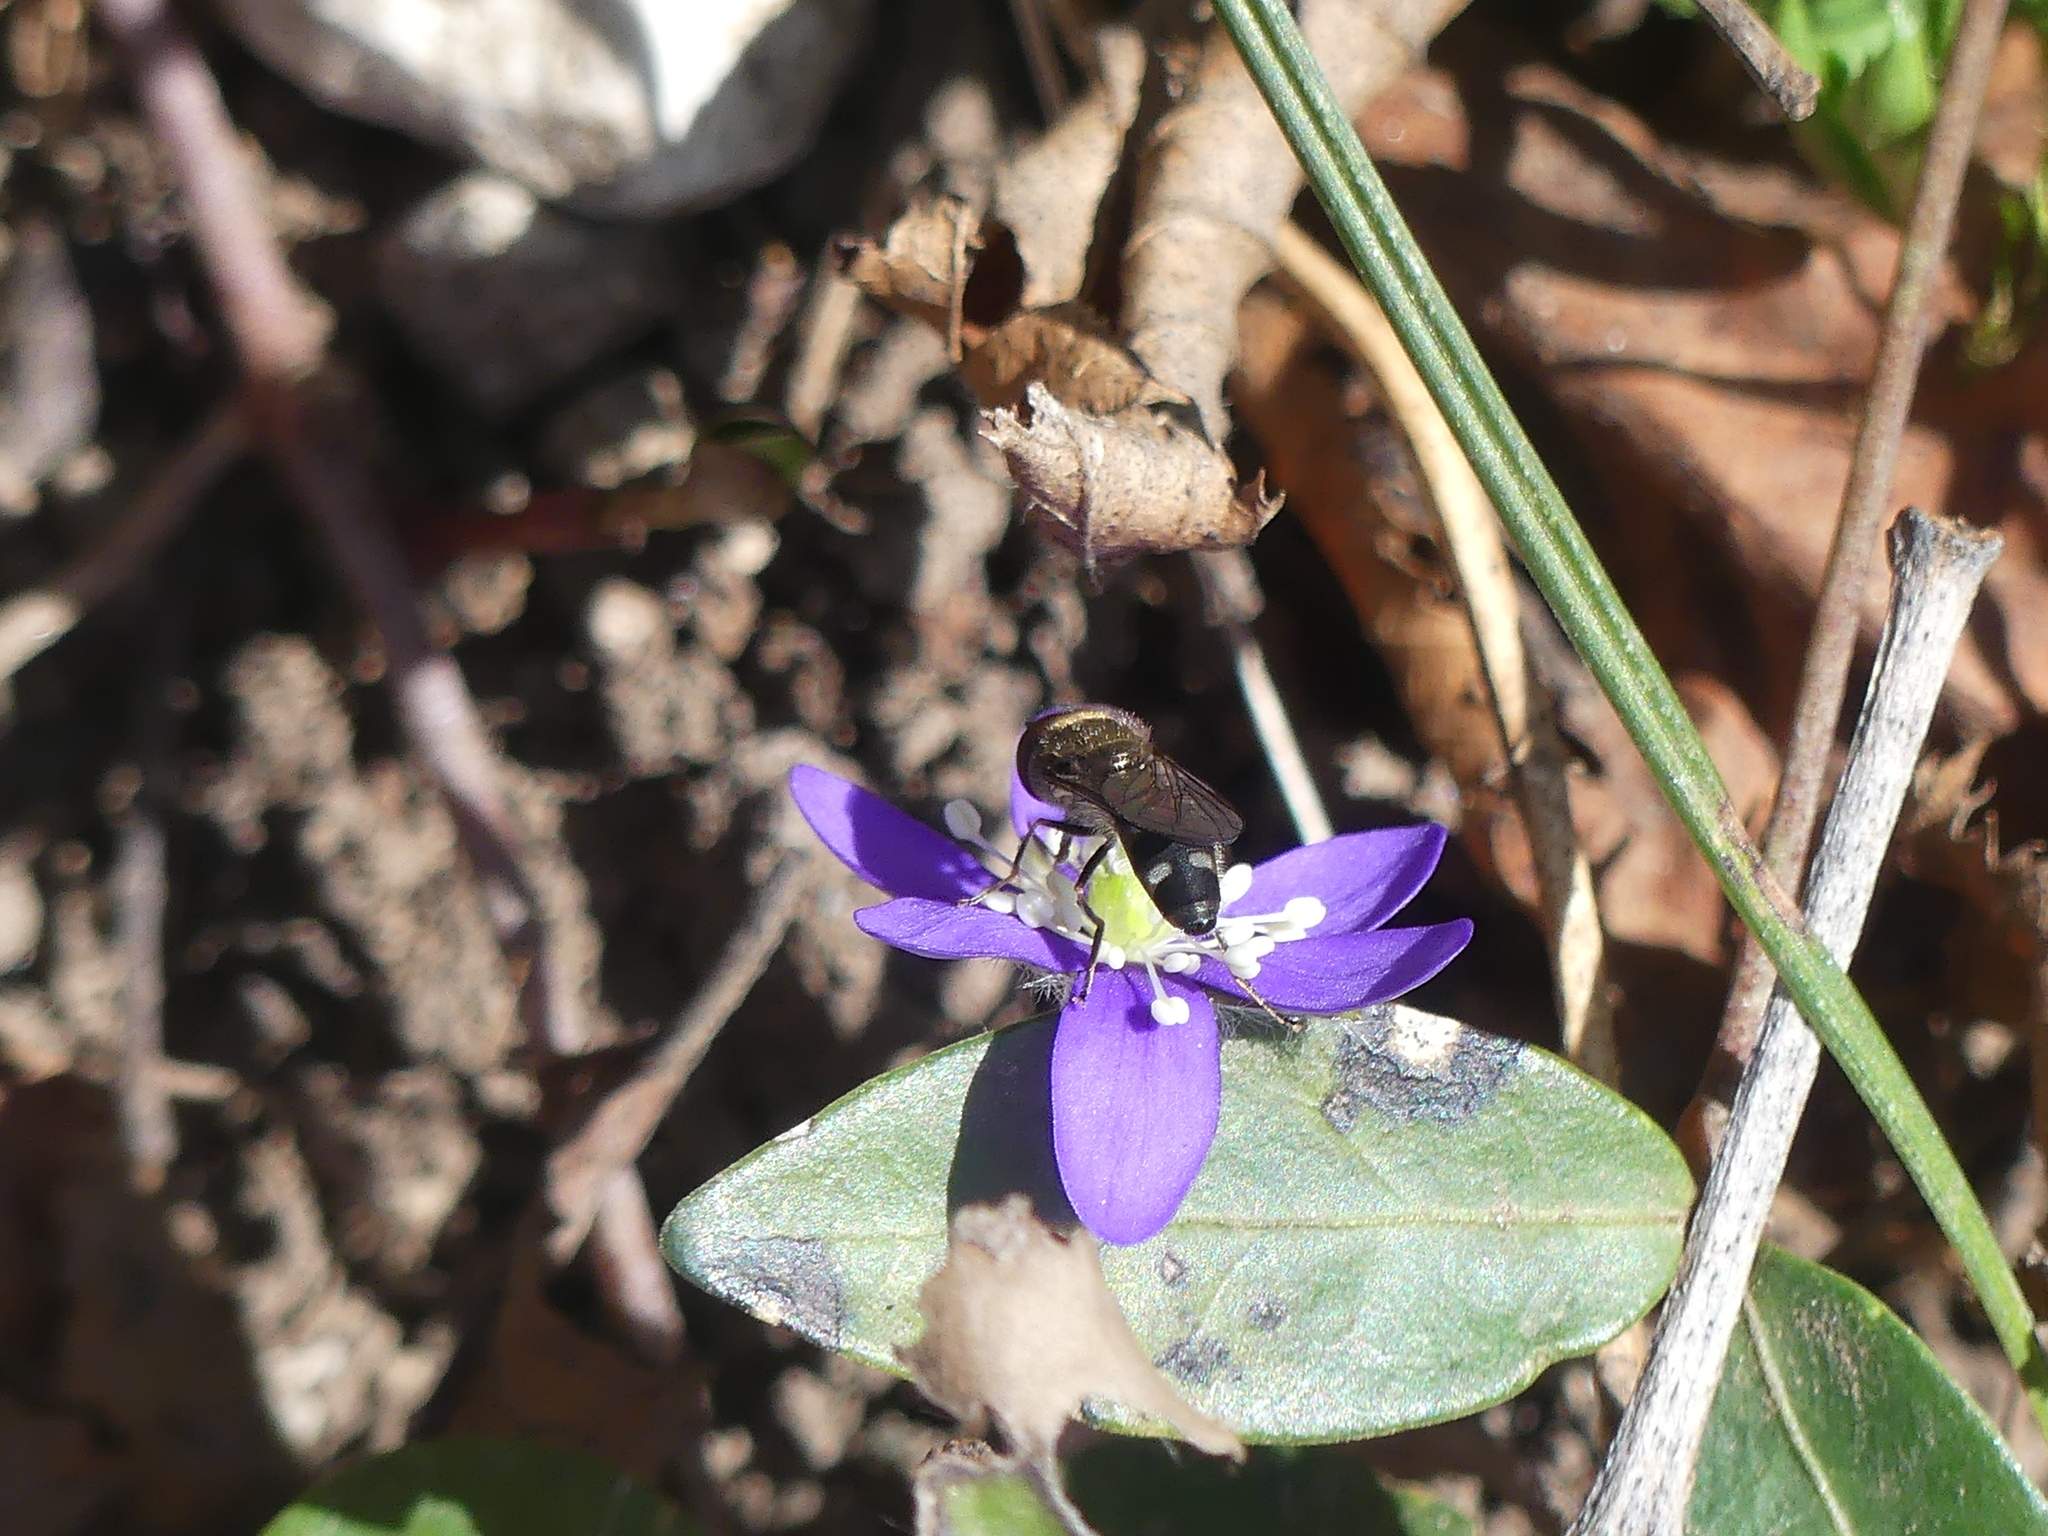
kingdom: Plantae
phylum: Tracheophyta
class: Magnoliopsida
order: Ranunculales
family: Ranunculaceae
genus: Hepatica
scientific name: Hepatica nobilis
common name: Liverleaf
